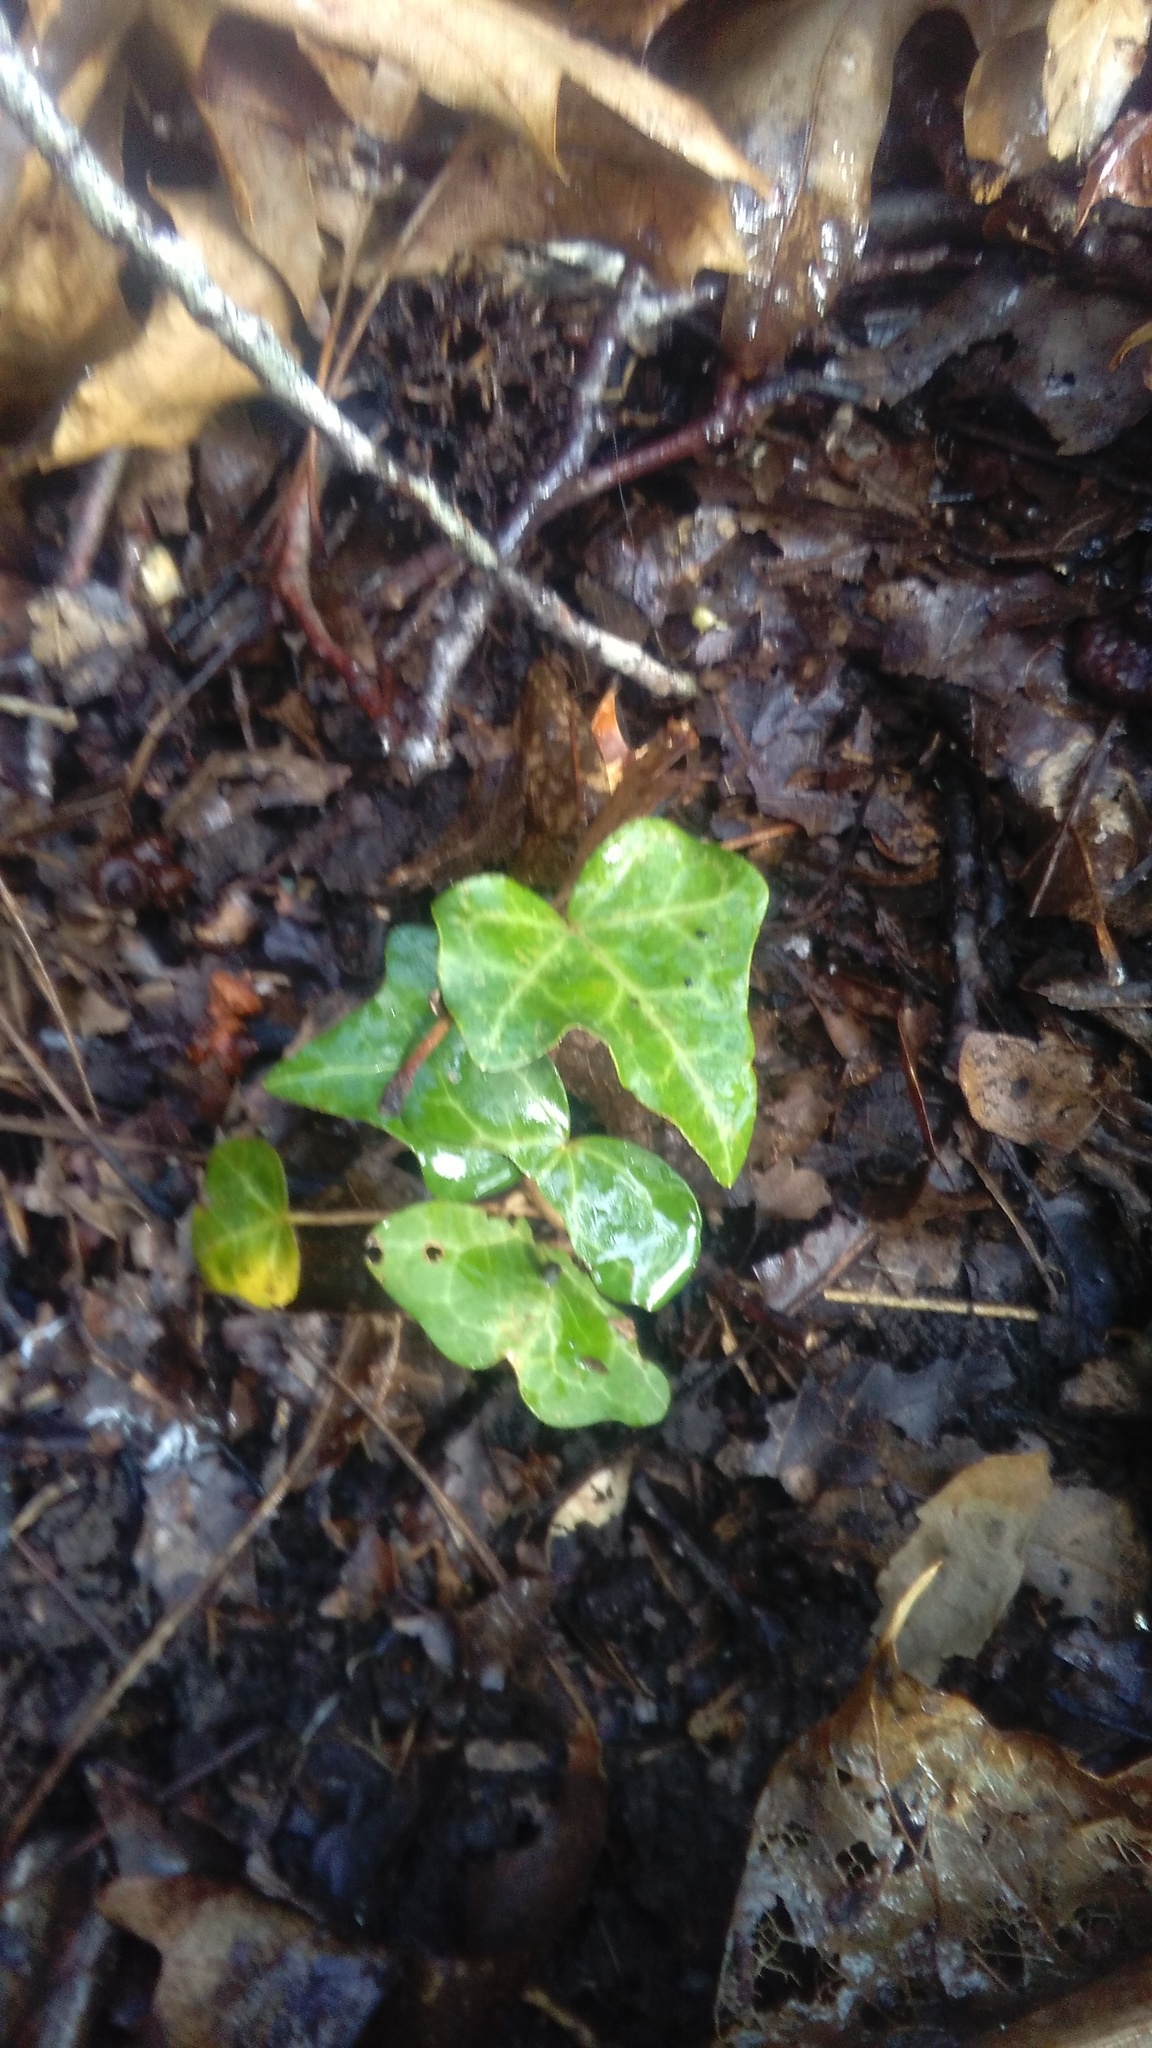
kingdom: Plantae
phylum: Tracheophyta
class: Magnoliopsida
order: Apiales
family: Araliaceae
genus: Hedera
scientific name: Hedera helix
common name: Ivy
